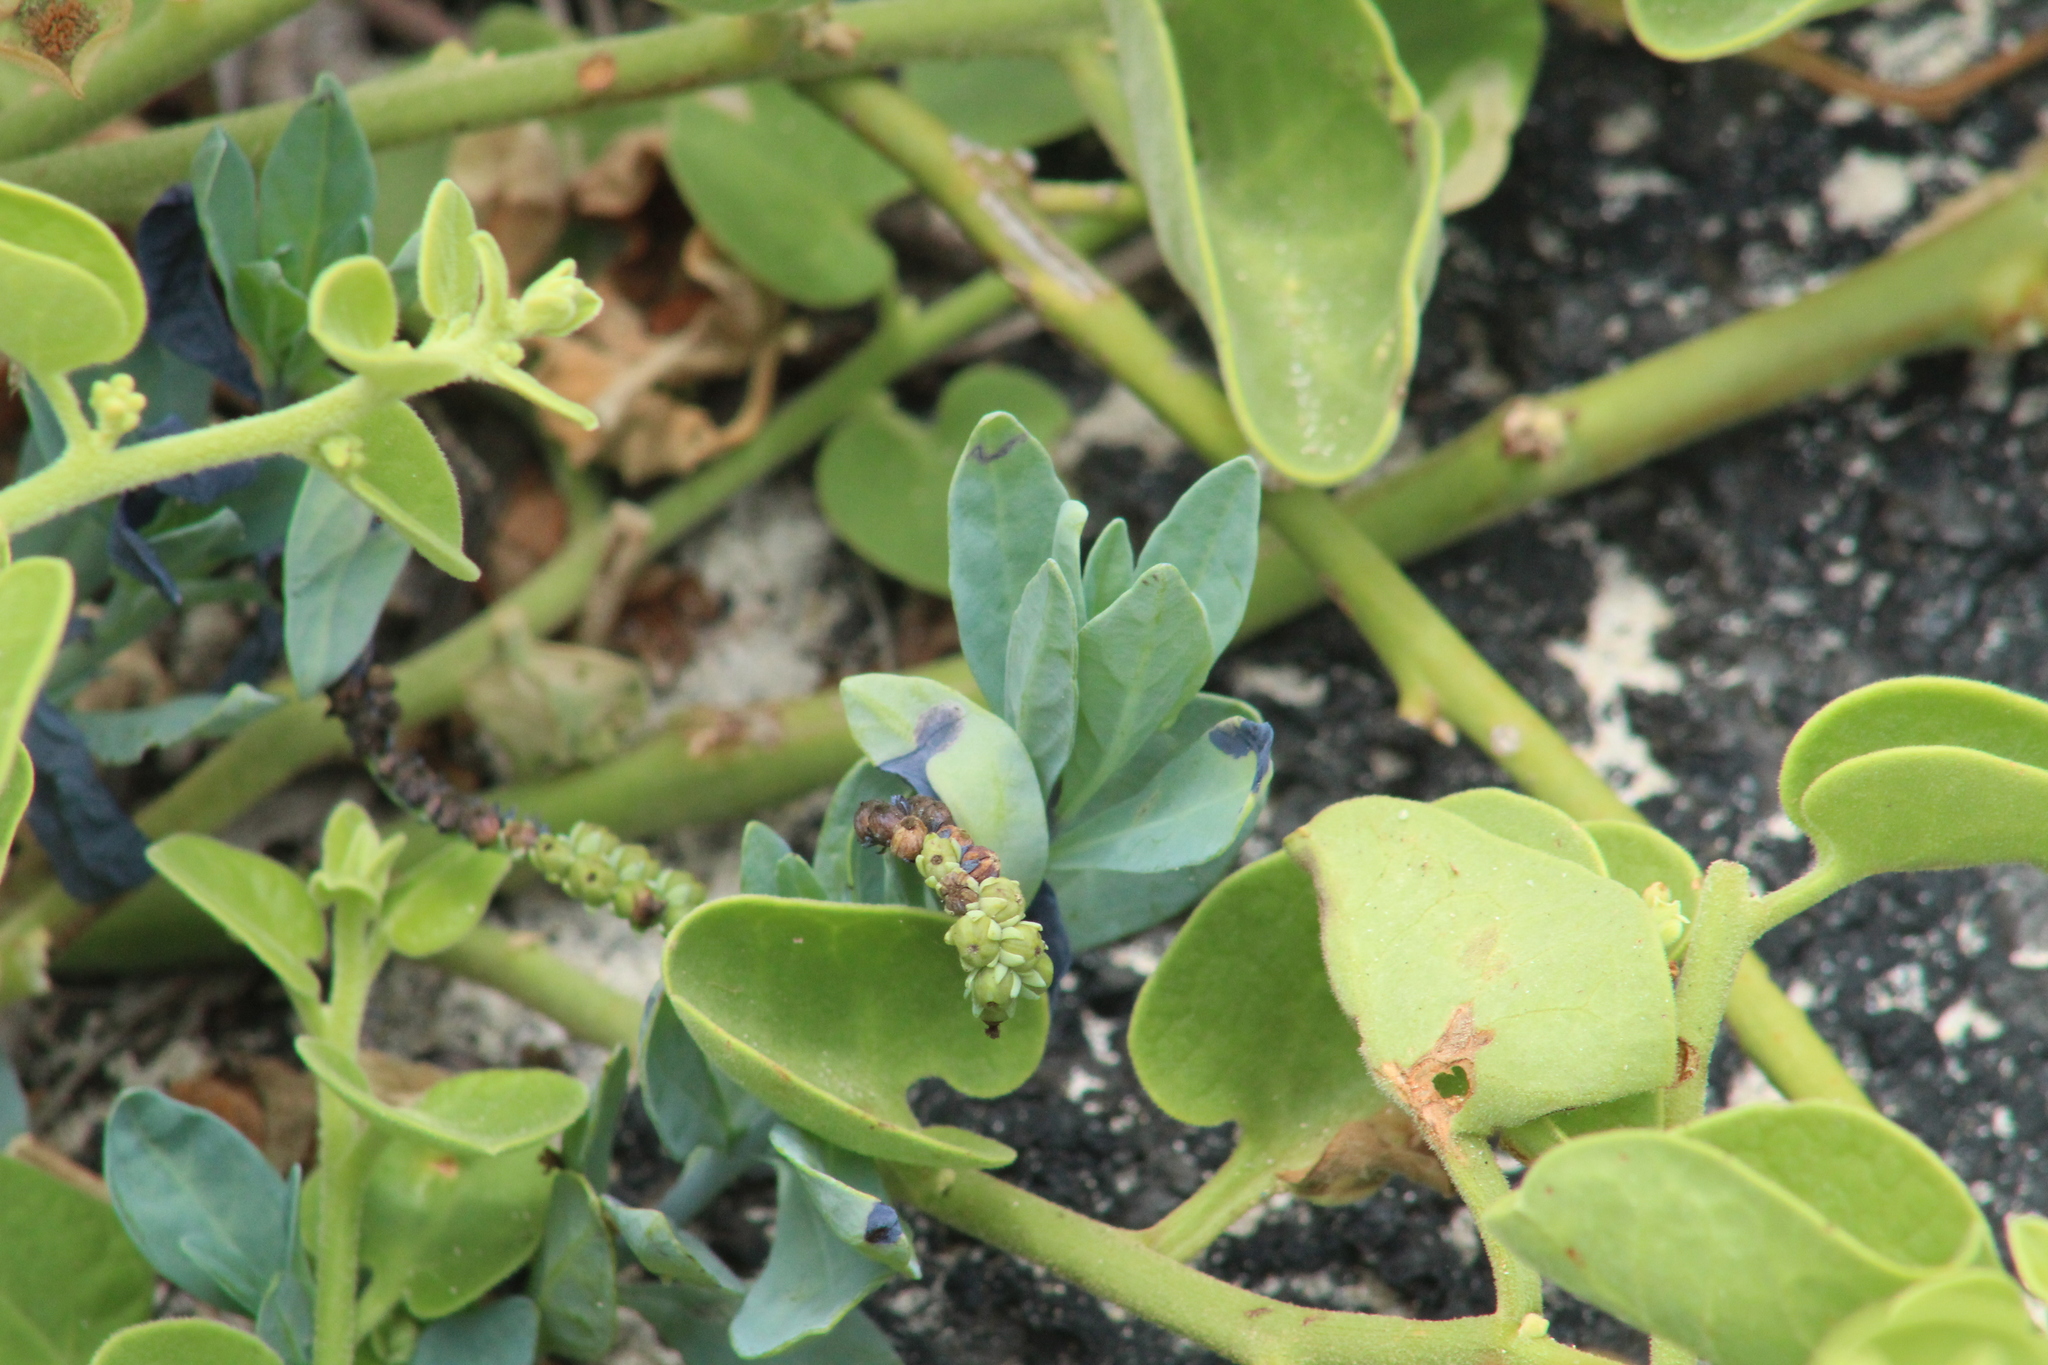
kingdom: Plantae
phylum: Tracheophyta
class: Magnoliopsida
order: Boraginales
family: Heliotropiaceae
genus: Heliotropium
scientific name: Heliotropium curassavicum
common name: Seaside heliotrope
